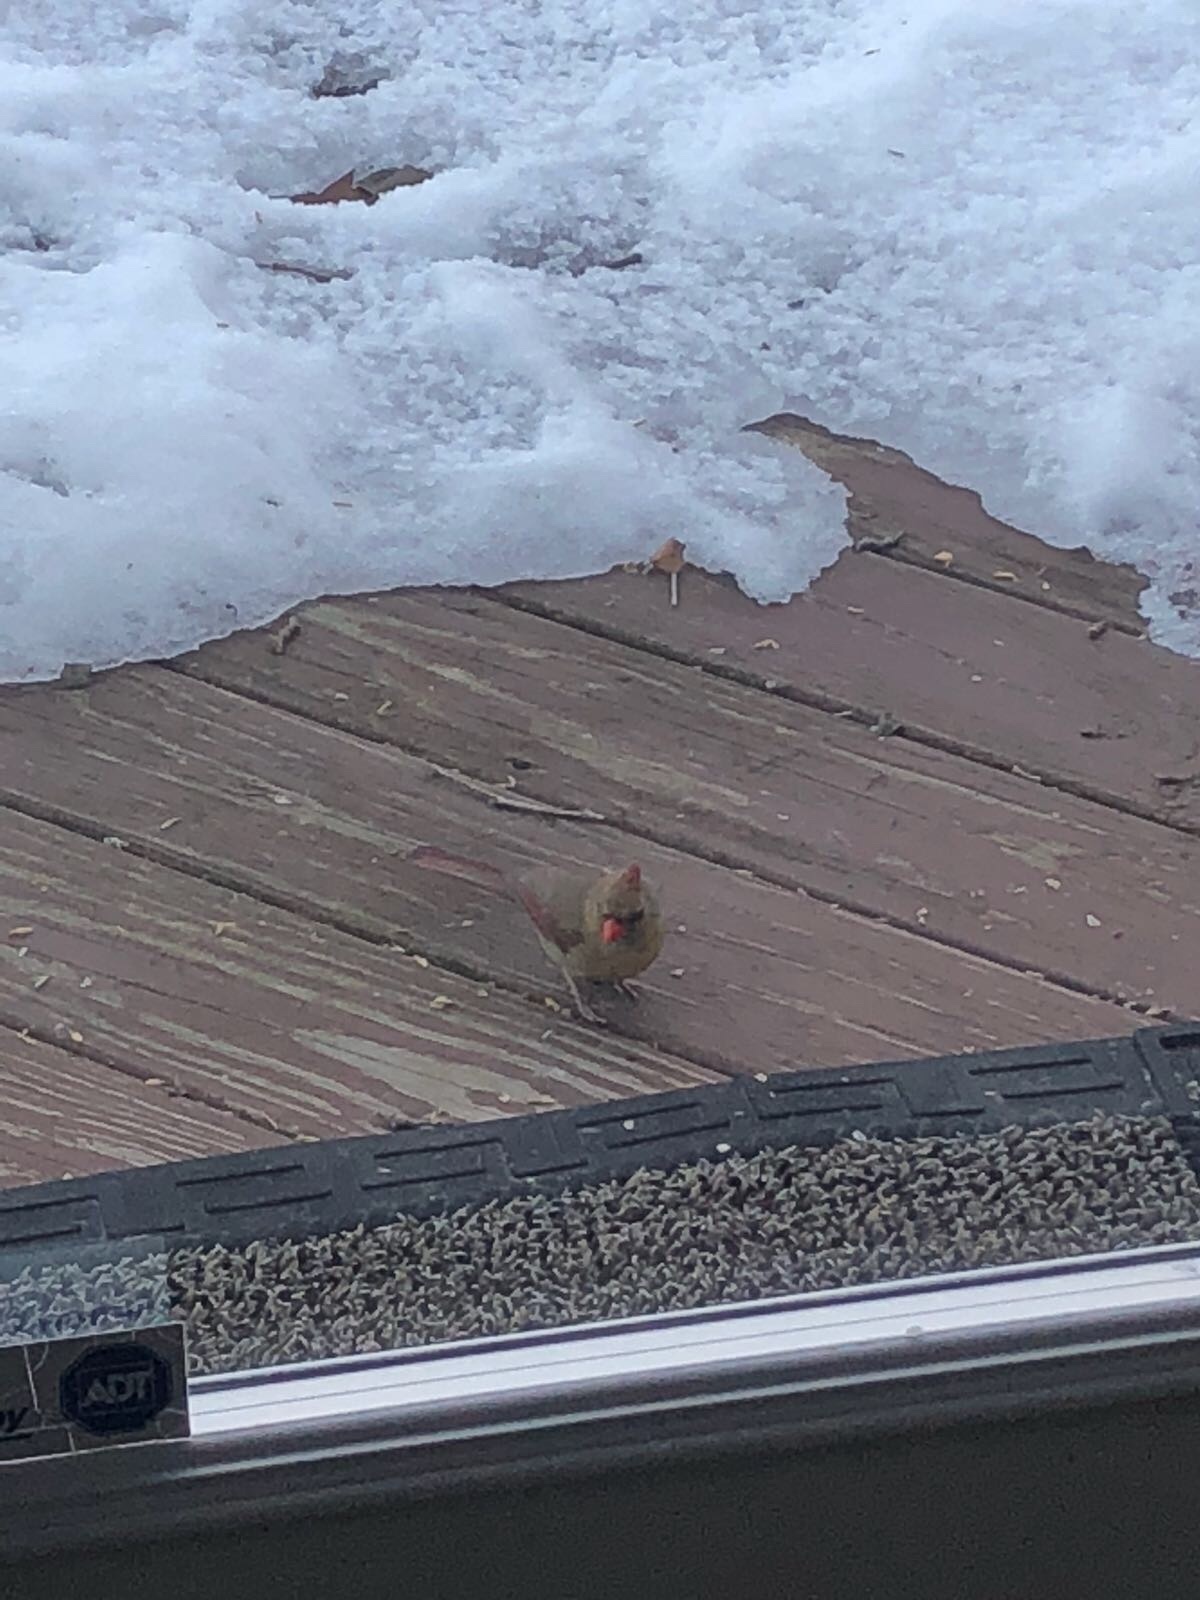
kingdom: Animalia
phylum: Chordata
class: Aves
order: Passeriformes
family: Cardinalidae
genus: Cardinalis
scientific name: Cardinalis cardinalis
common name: Northern cardinal
